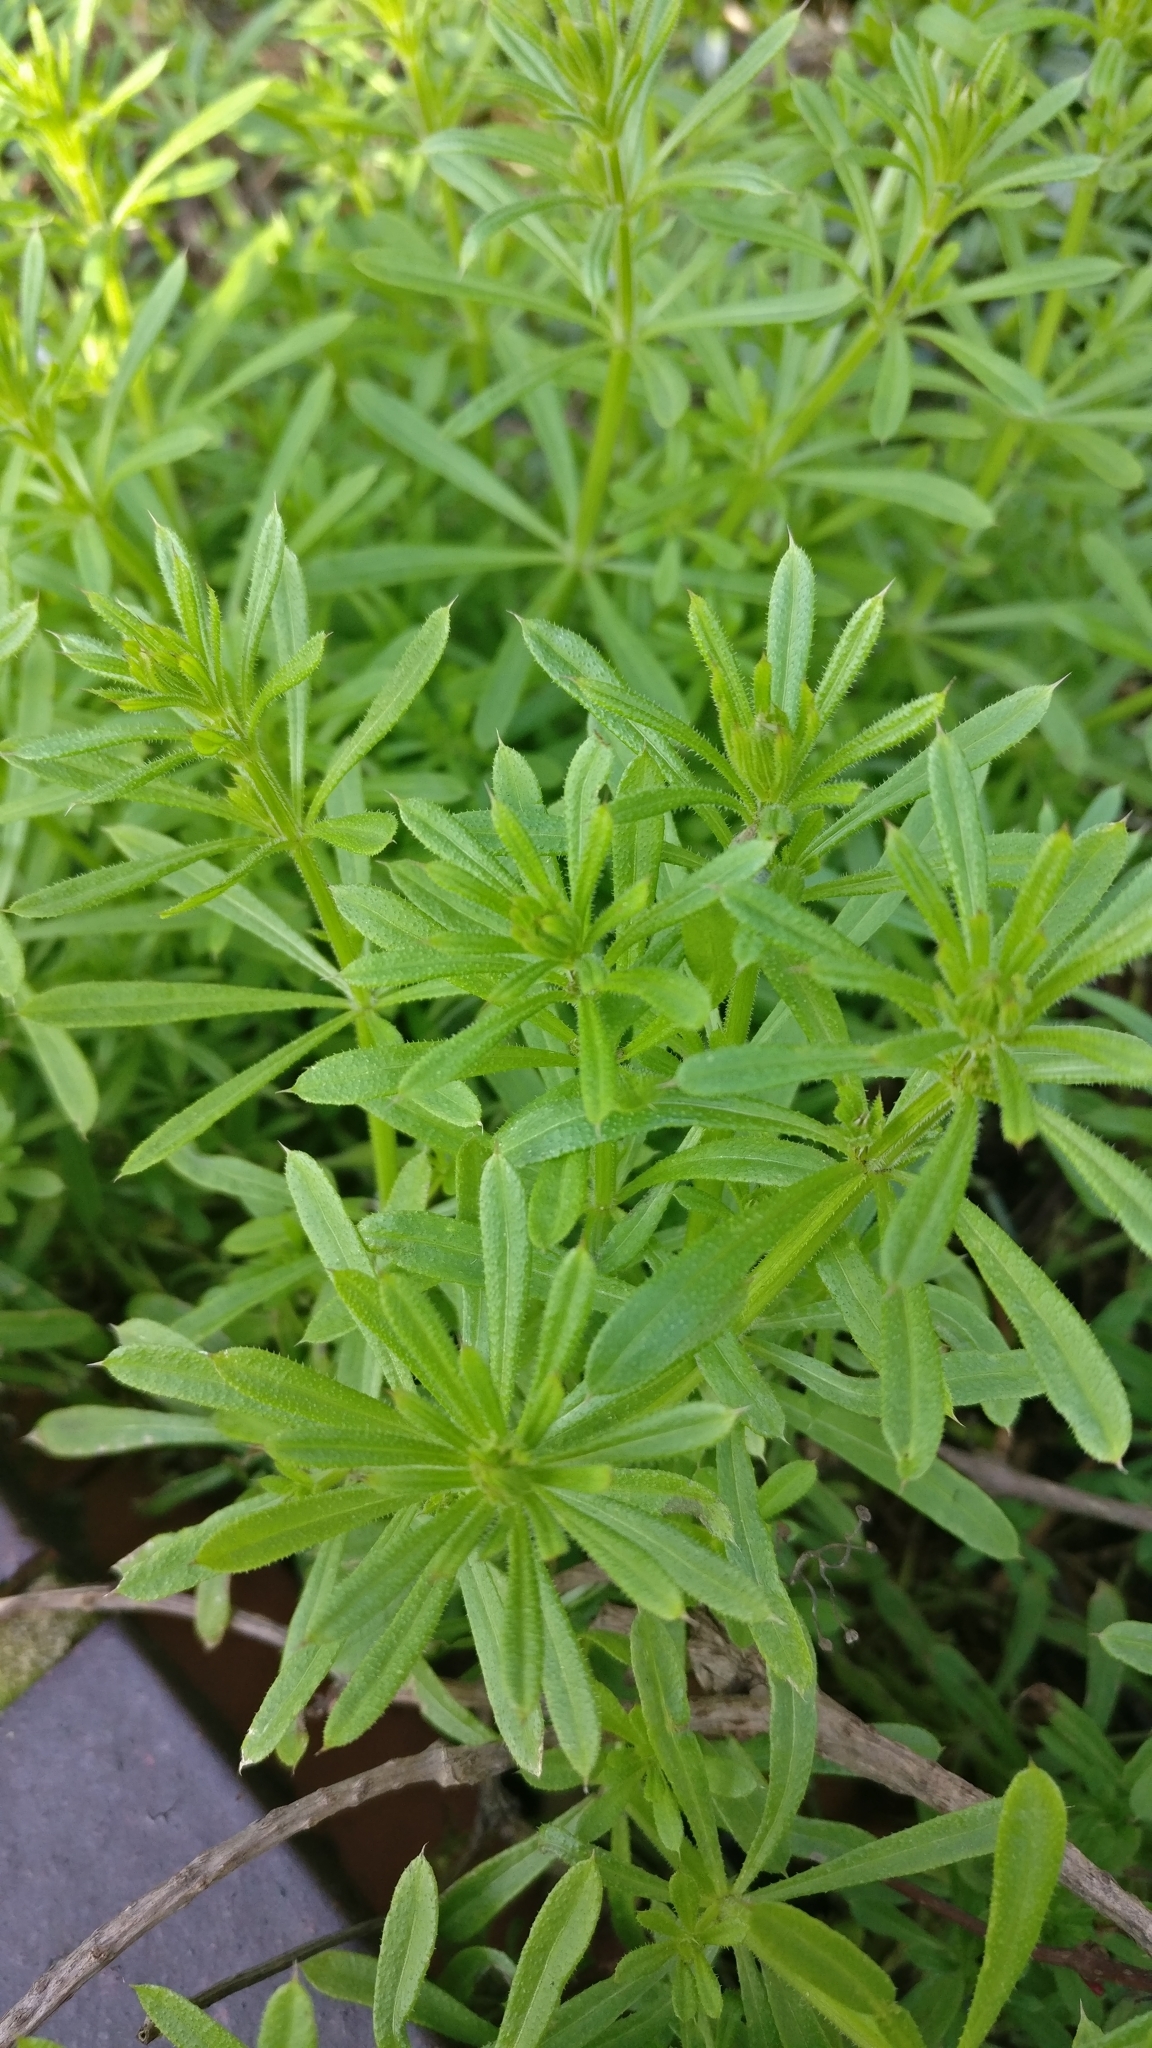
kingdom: Plantae
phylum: Tracheophyta
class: Magnoliopsida
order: Gentianales
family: Rubiaceae
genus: Galium
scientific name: Galium aparine
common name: Cleavers
